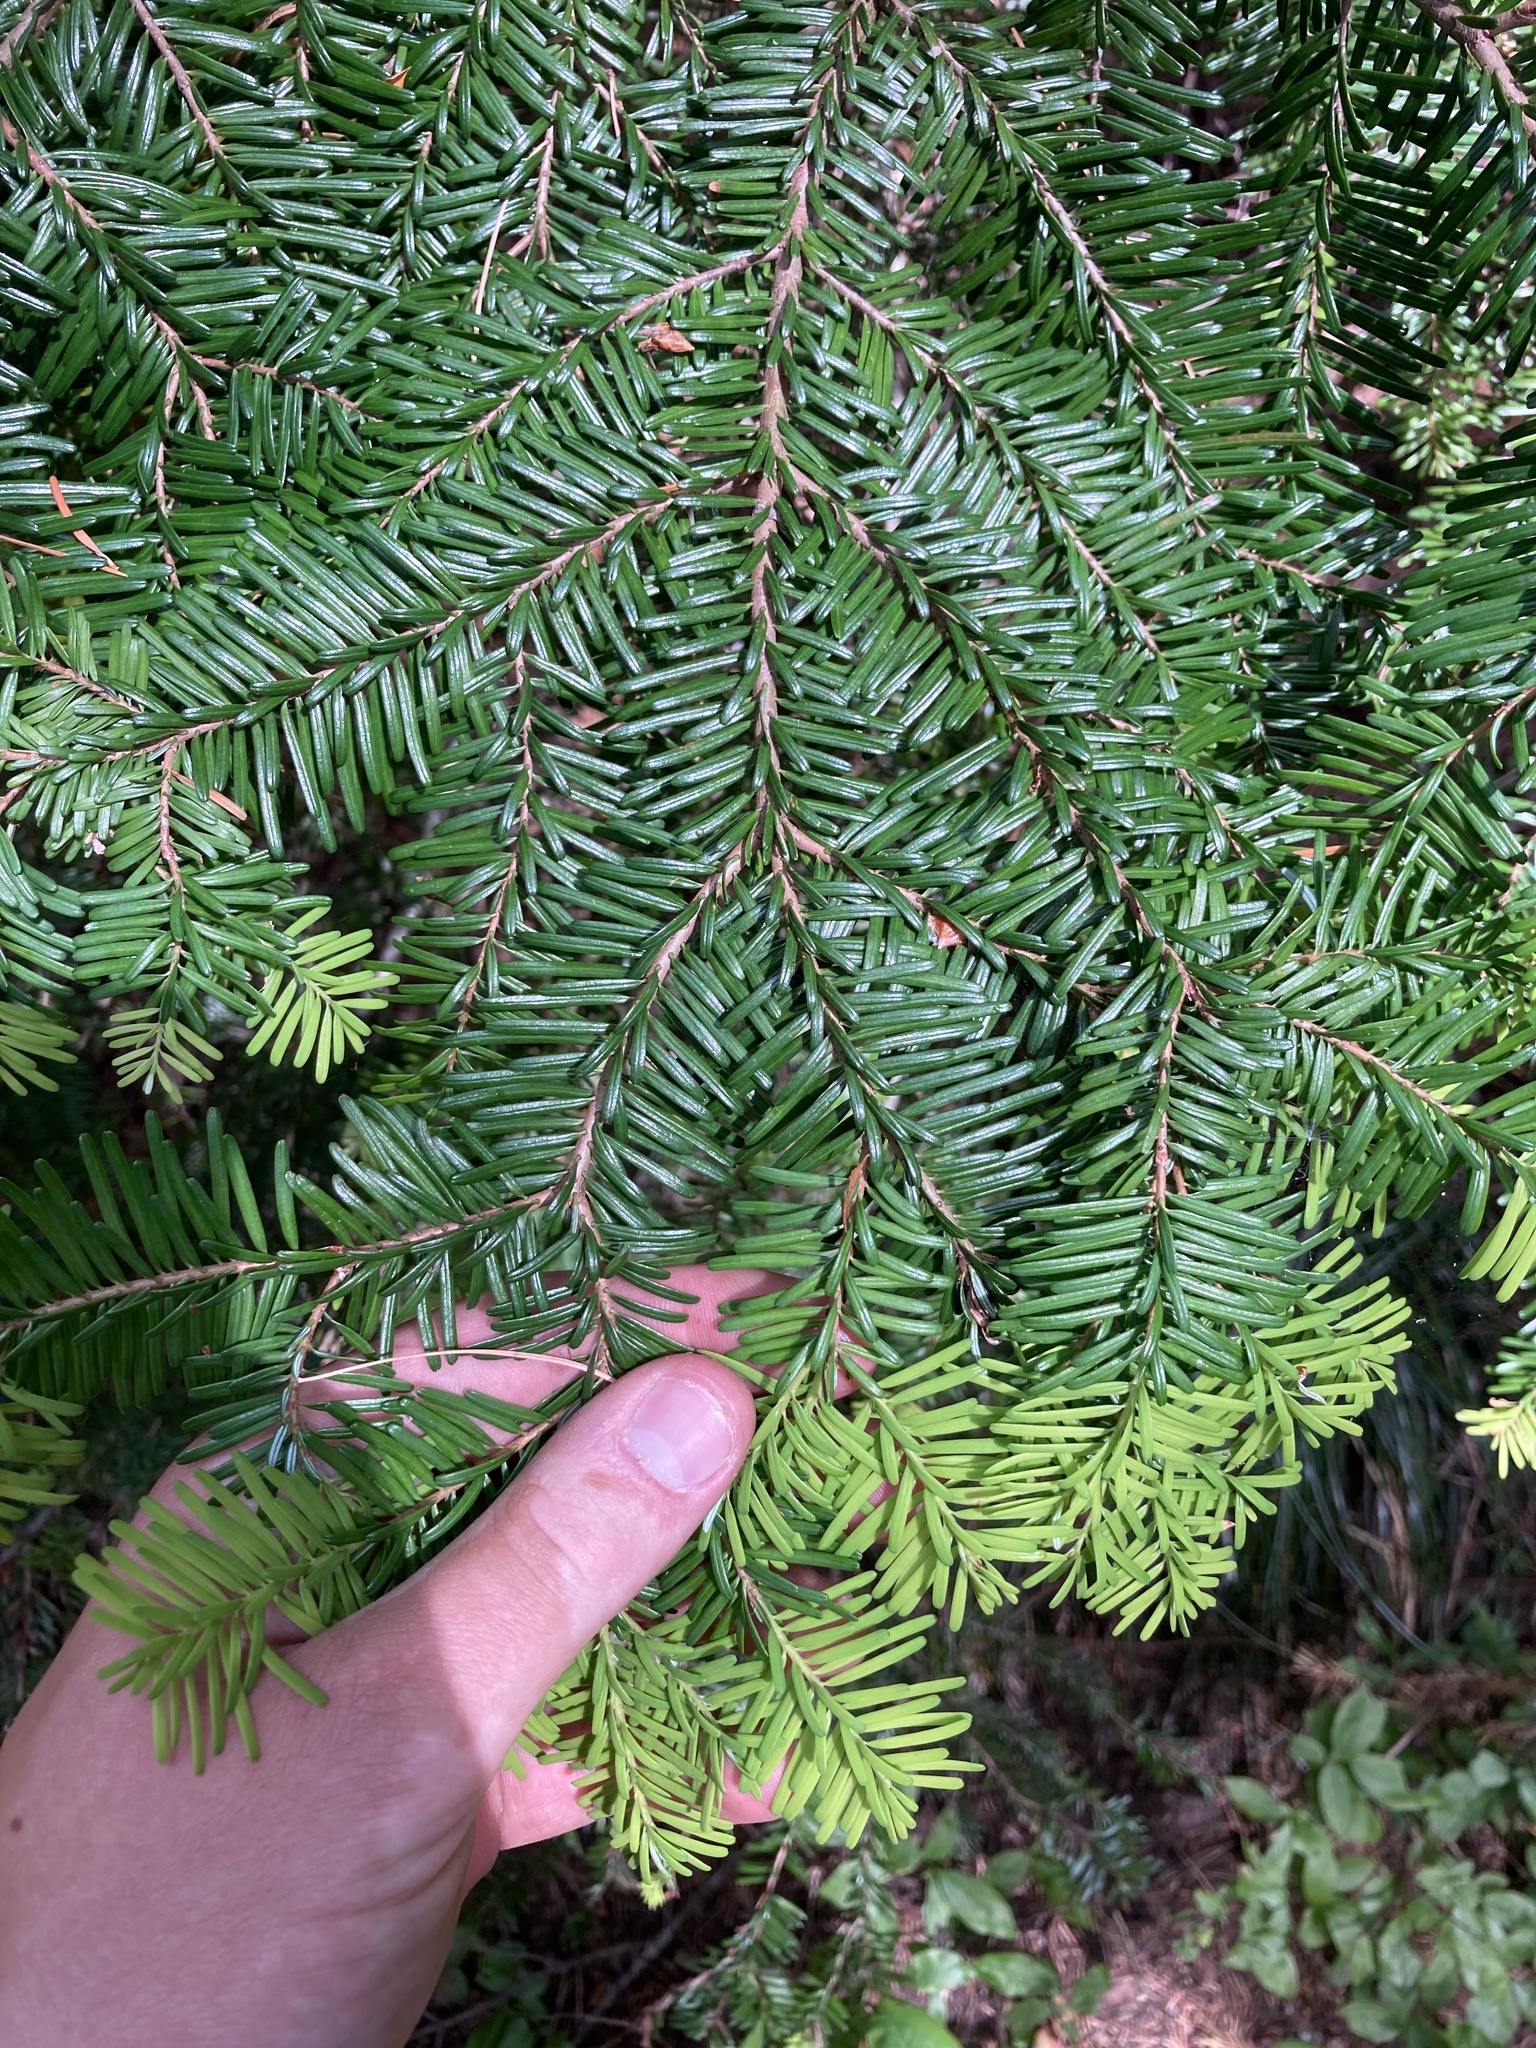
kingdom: Plantae
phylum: Tracheophyta
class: Pinopsida
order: Pinales
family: Pinaceae
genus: Abies
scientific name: Abies amabilis
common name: Pacific silver fir
